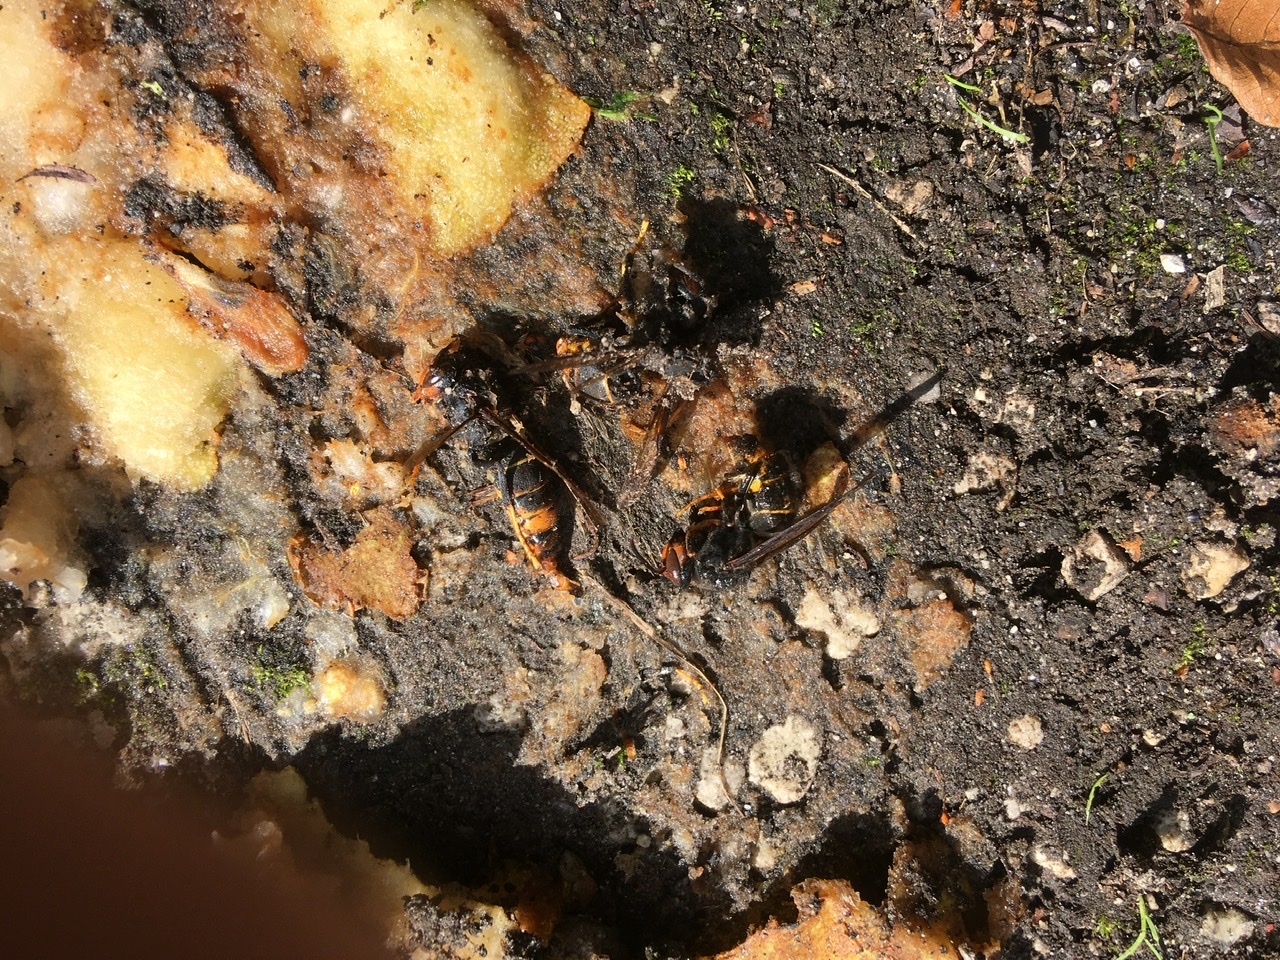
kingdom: Animalia
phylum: Arthropoda
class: Insecta
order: Hymenoptera
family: Vespidae
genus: Vespa
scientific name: Vespa velutina
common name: Asian hornet
